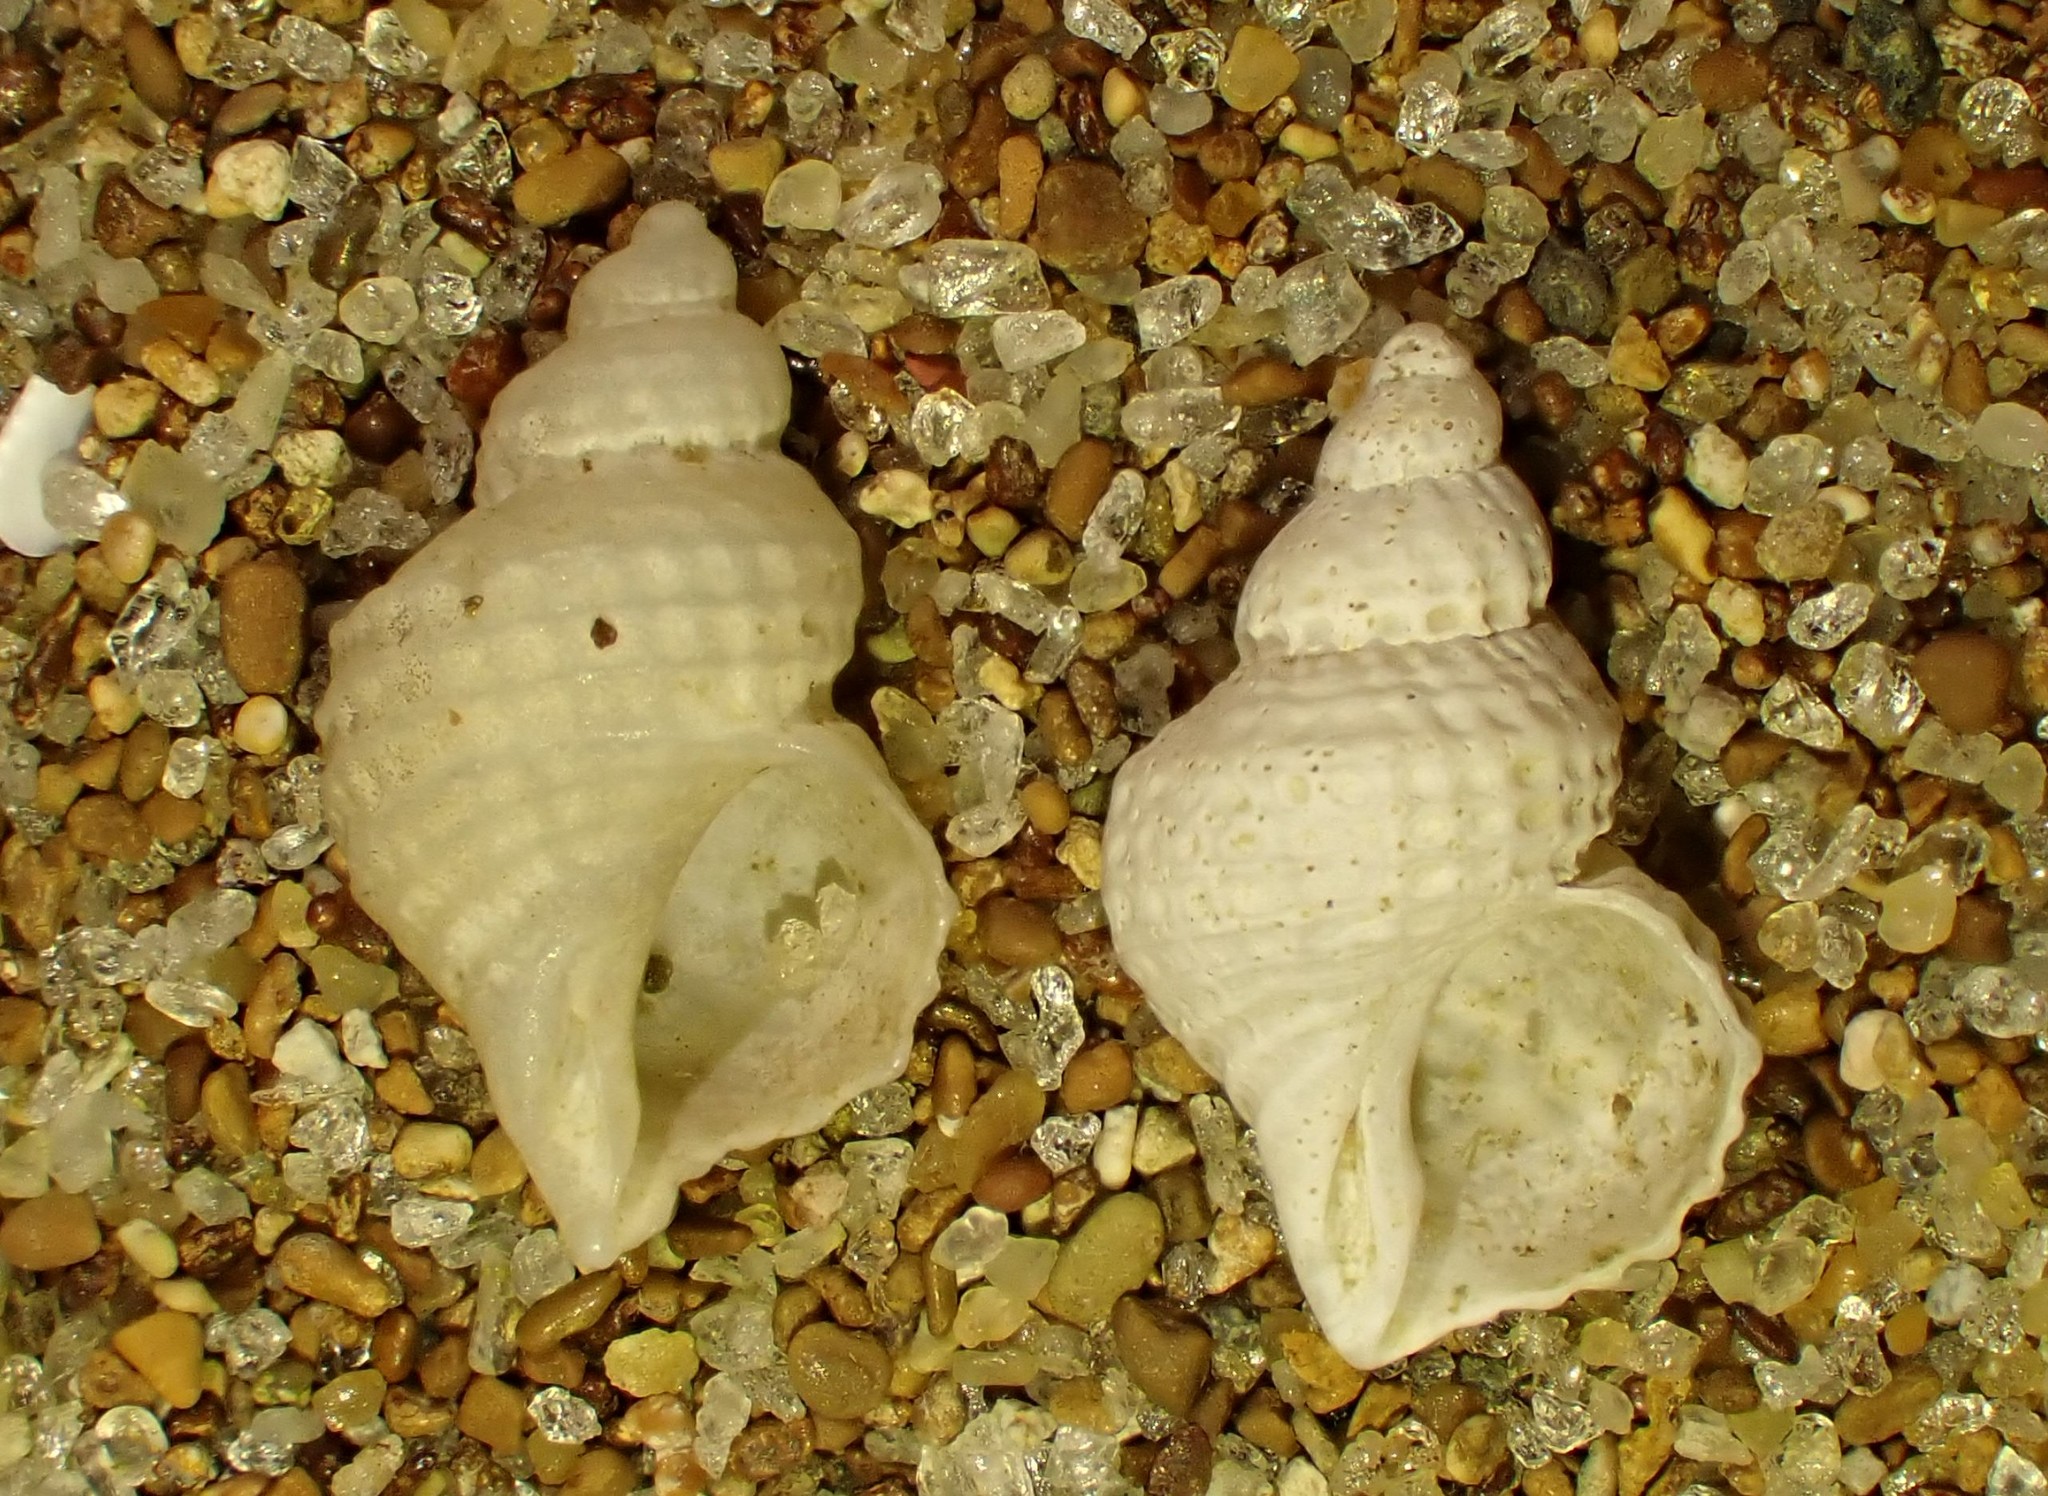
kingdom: Animalia
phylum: Mollusca
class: Gastropoda
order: Littorinimorpha
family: Capulidae
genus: Trichosirius
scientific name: Trichosirius inornatus
